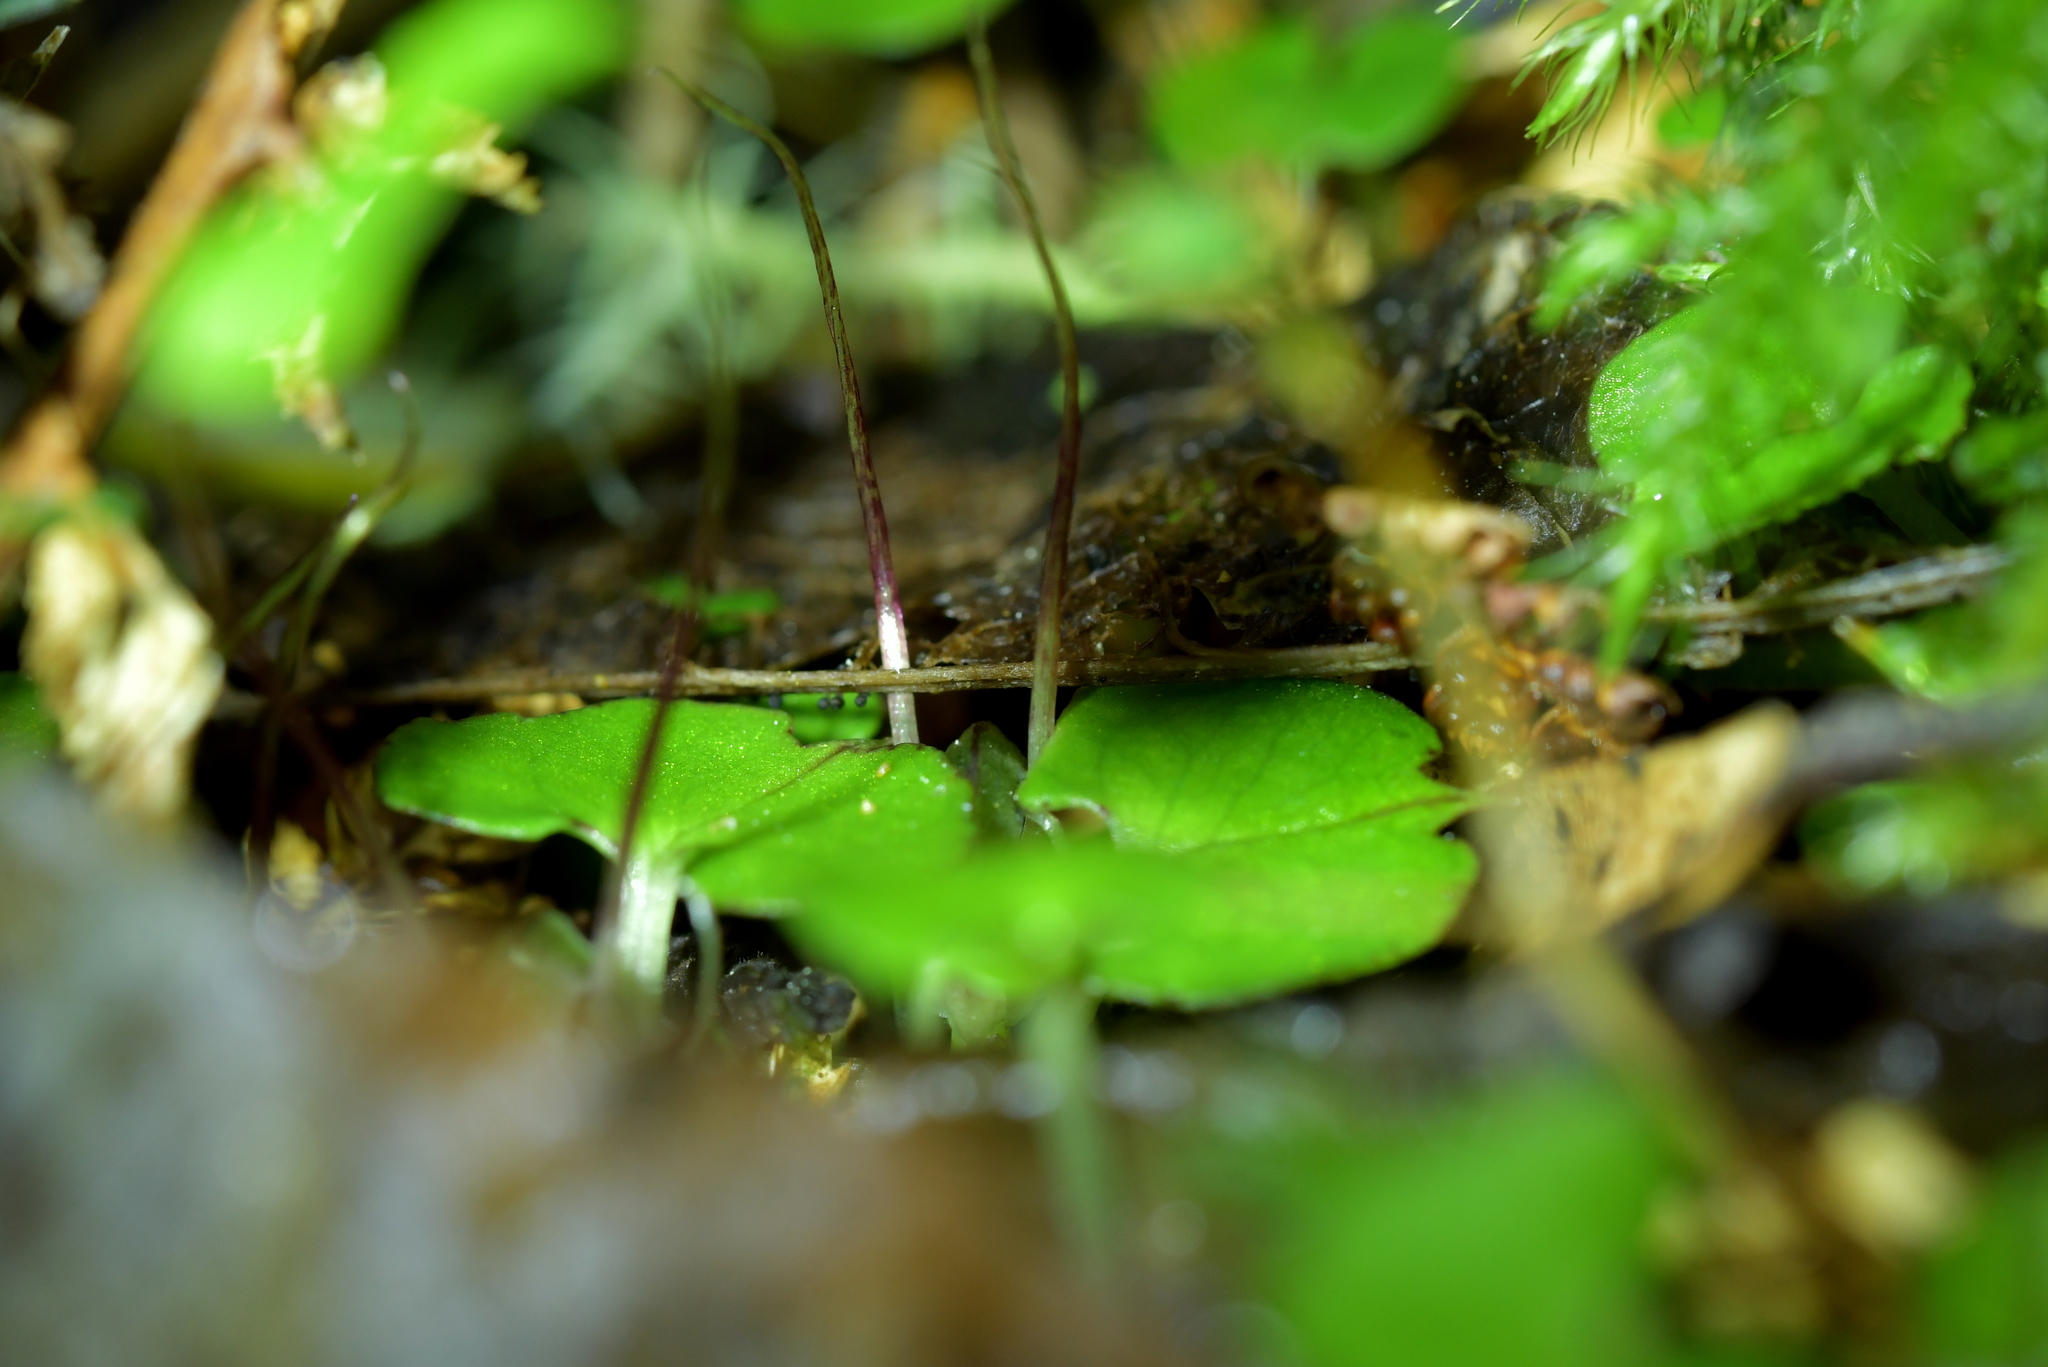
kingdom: Plantae
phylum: Tracheophyta
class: Liliopsida
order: Asparagales
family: Orchidaceae
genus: Corybas
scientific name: Corybas trilobus
